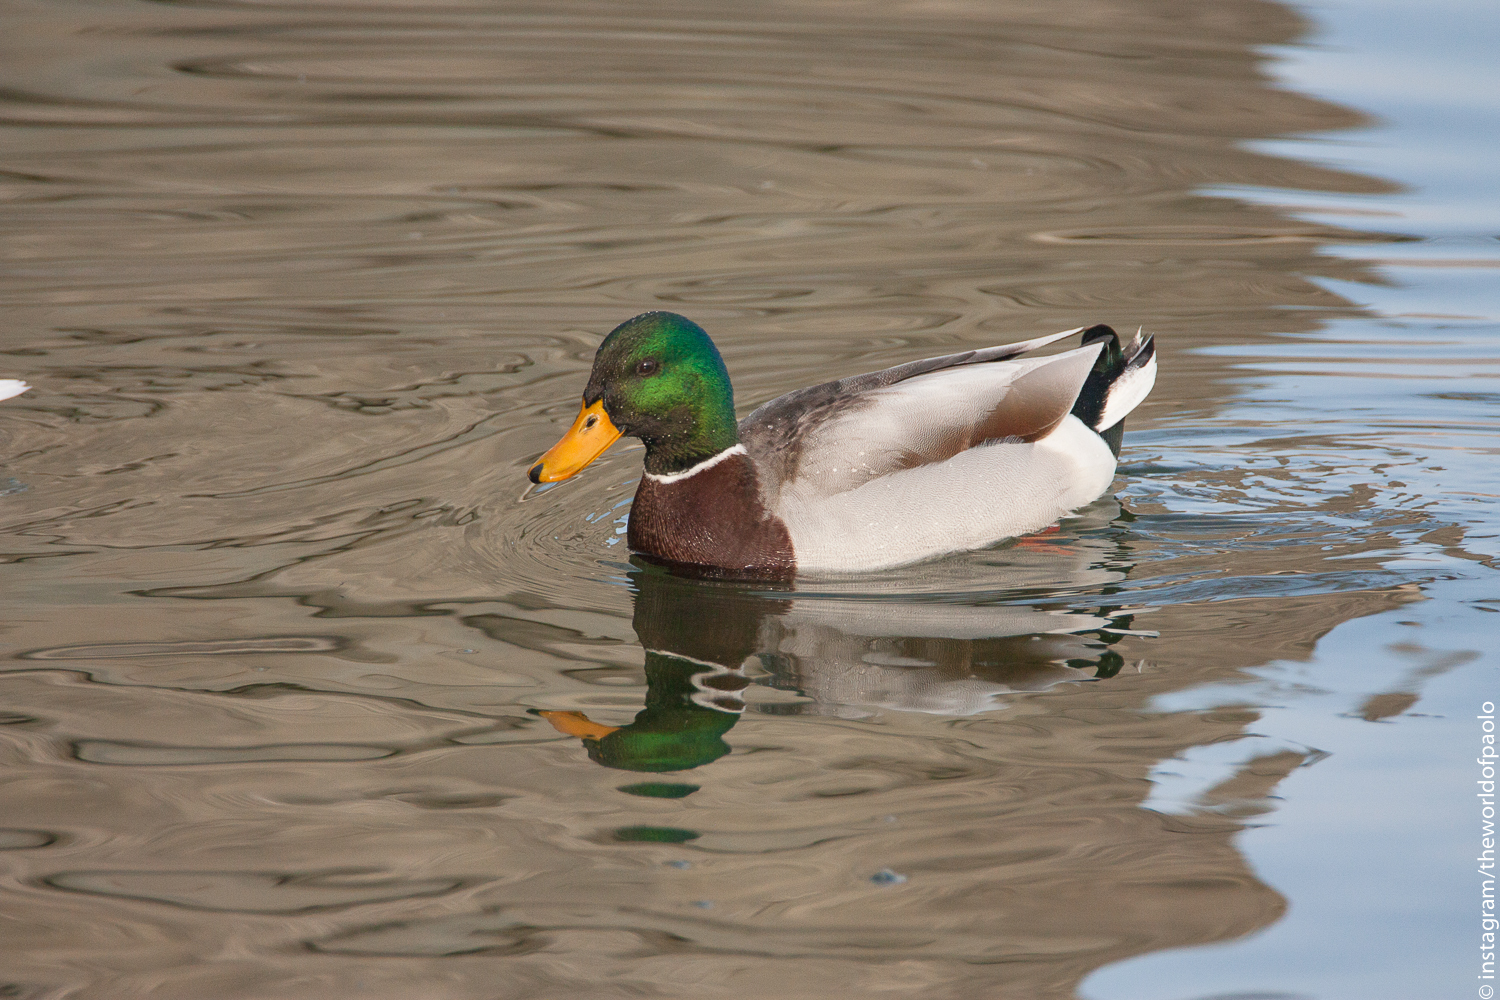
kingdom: Animalia
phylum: Chordata
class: Aves
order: Anseriformes
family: Anatidae
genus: Anas
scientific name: Anas platyrhynchos
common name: Mallard
